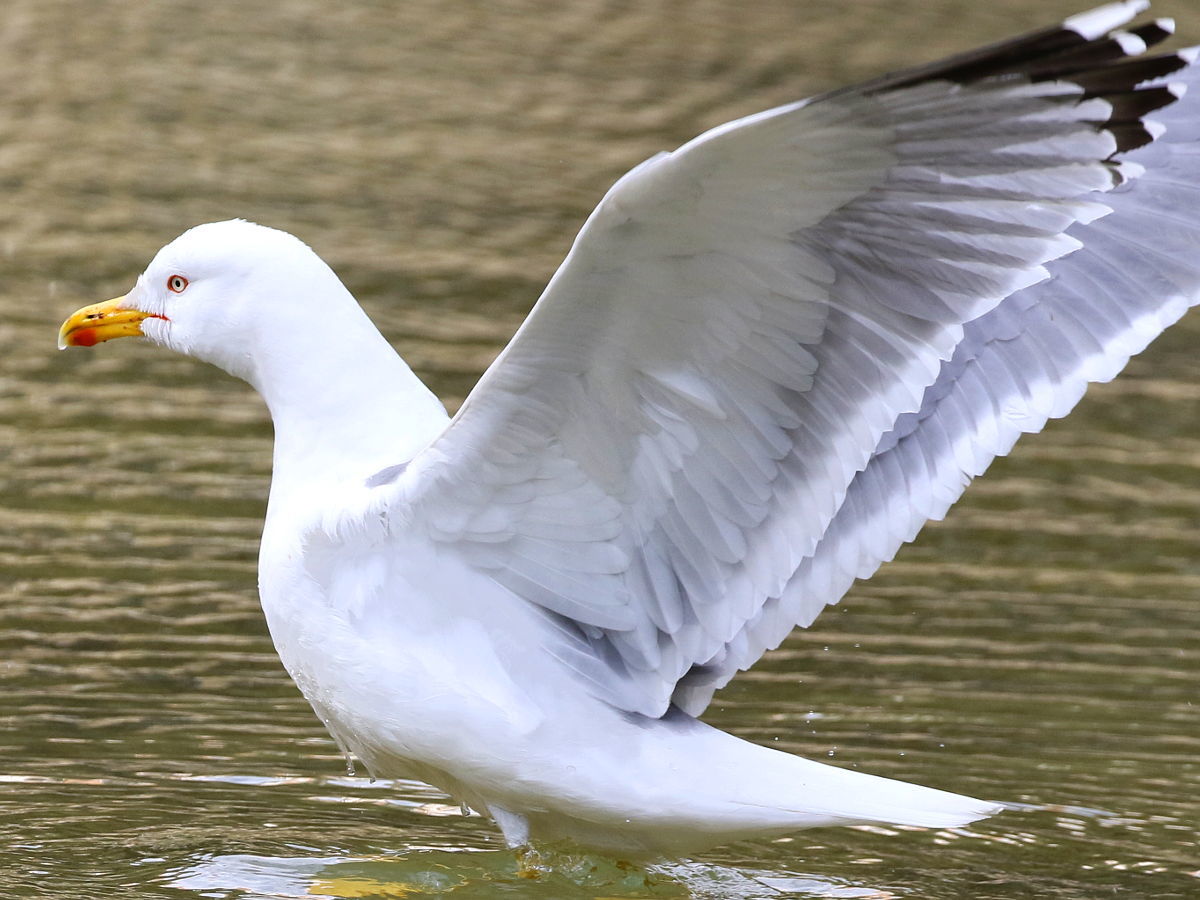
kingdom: Animalia
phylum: Chordata
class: Aves
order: Charadriiformes
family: Laridae
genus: Larus
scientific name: Larus michahellis
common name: Yellow-legged gull
